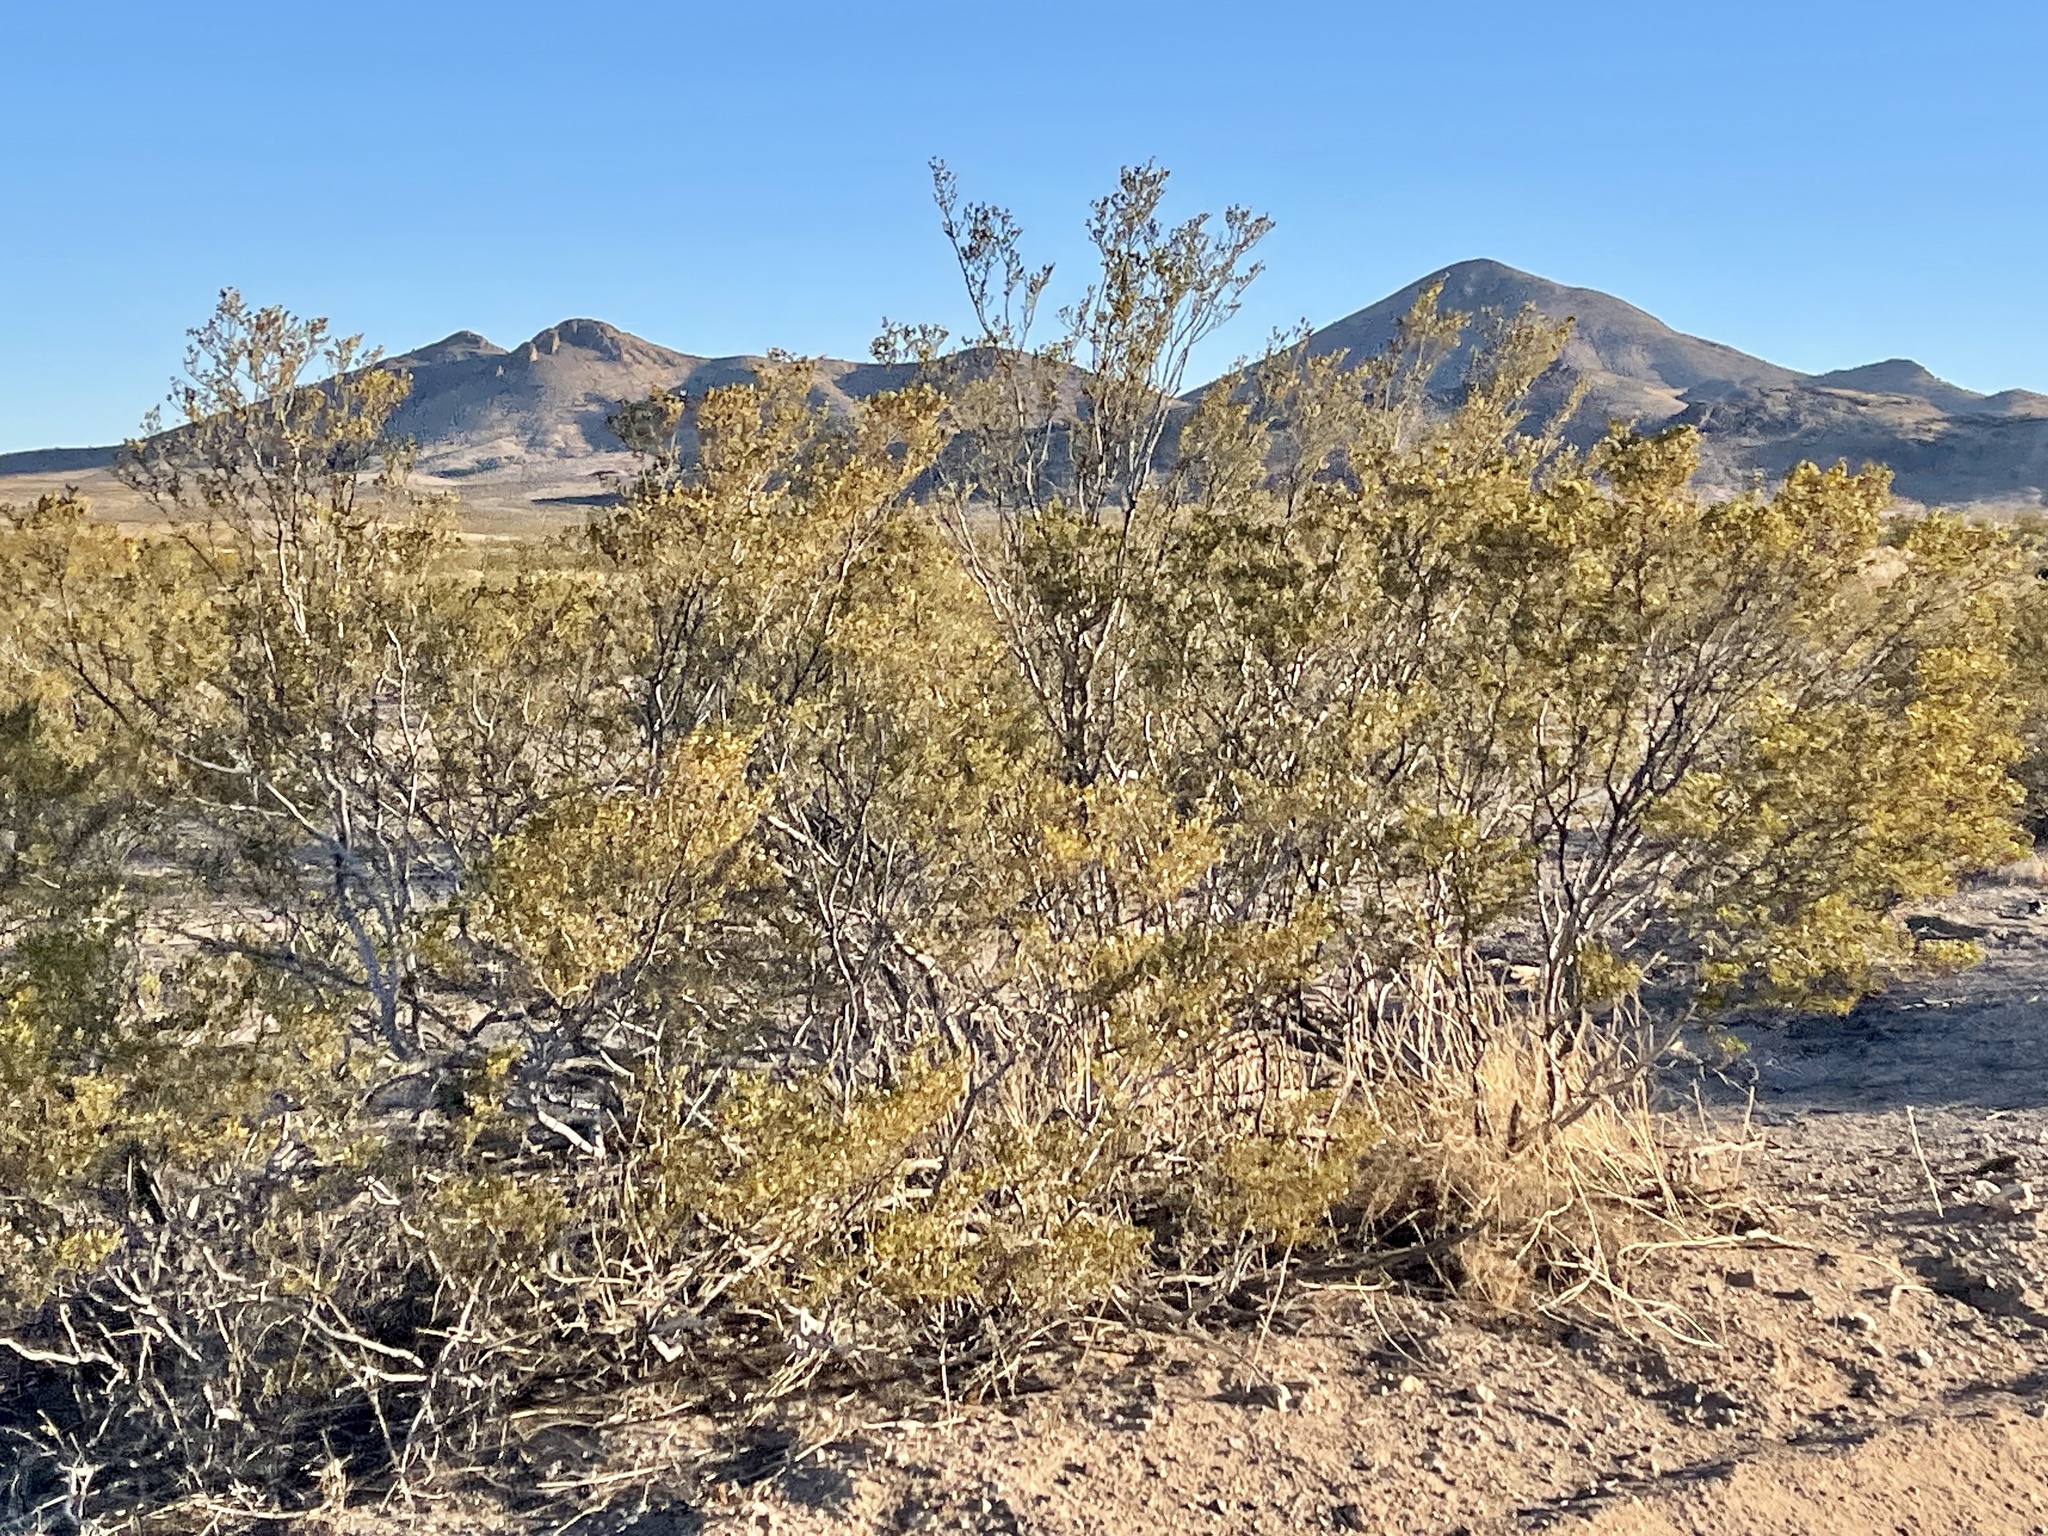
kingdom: Plantae
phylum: Tracheophyta
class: Magnoliopsida
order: Zygophyllales
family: Zygophyllaceae
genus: Larrea
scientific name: Larrea tridentata
